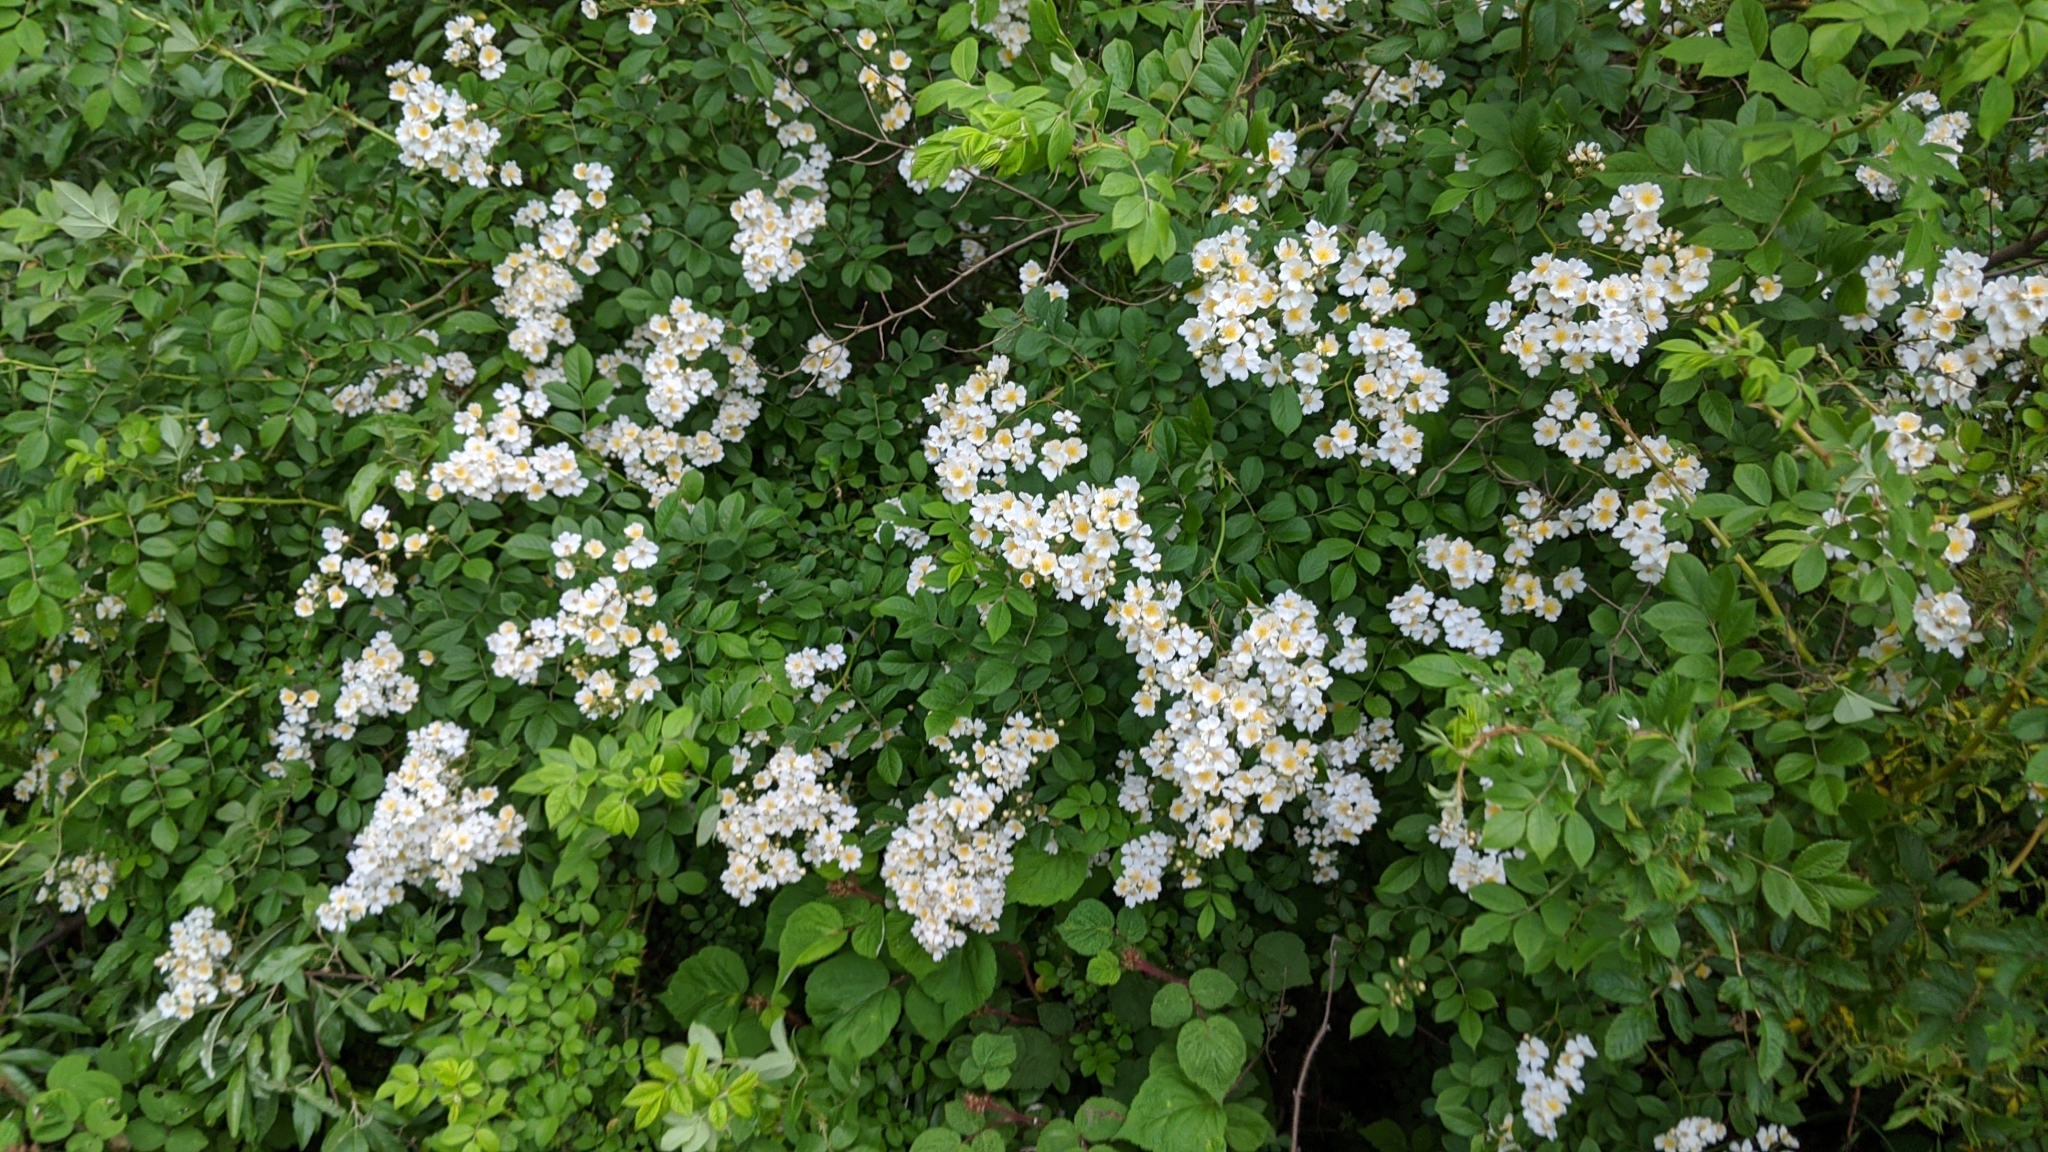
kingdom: Plantae
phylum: Tracheophyta
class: Magnoliopsida
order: Rosales
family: Rosaceae
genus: Rosa
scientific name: Rosa multiflora
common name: Multiflora rose
